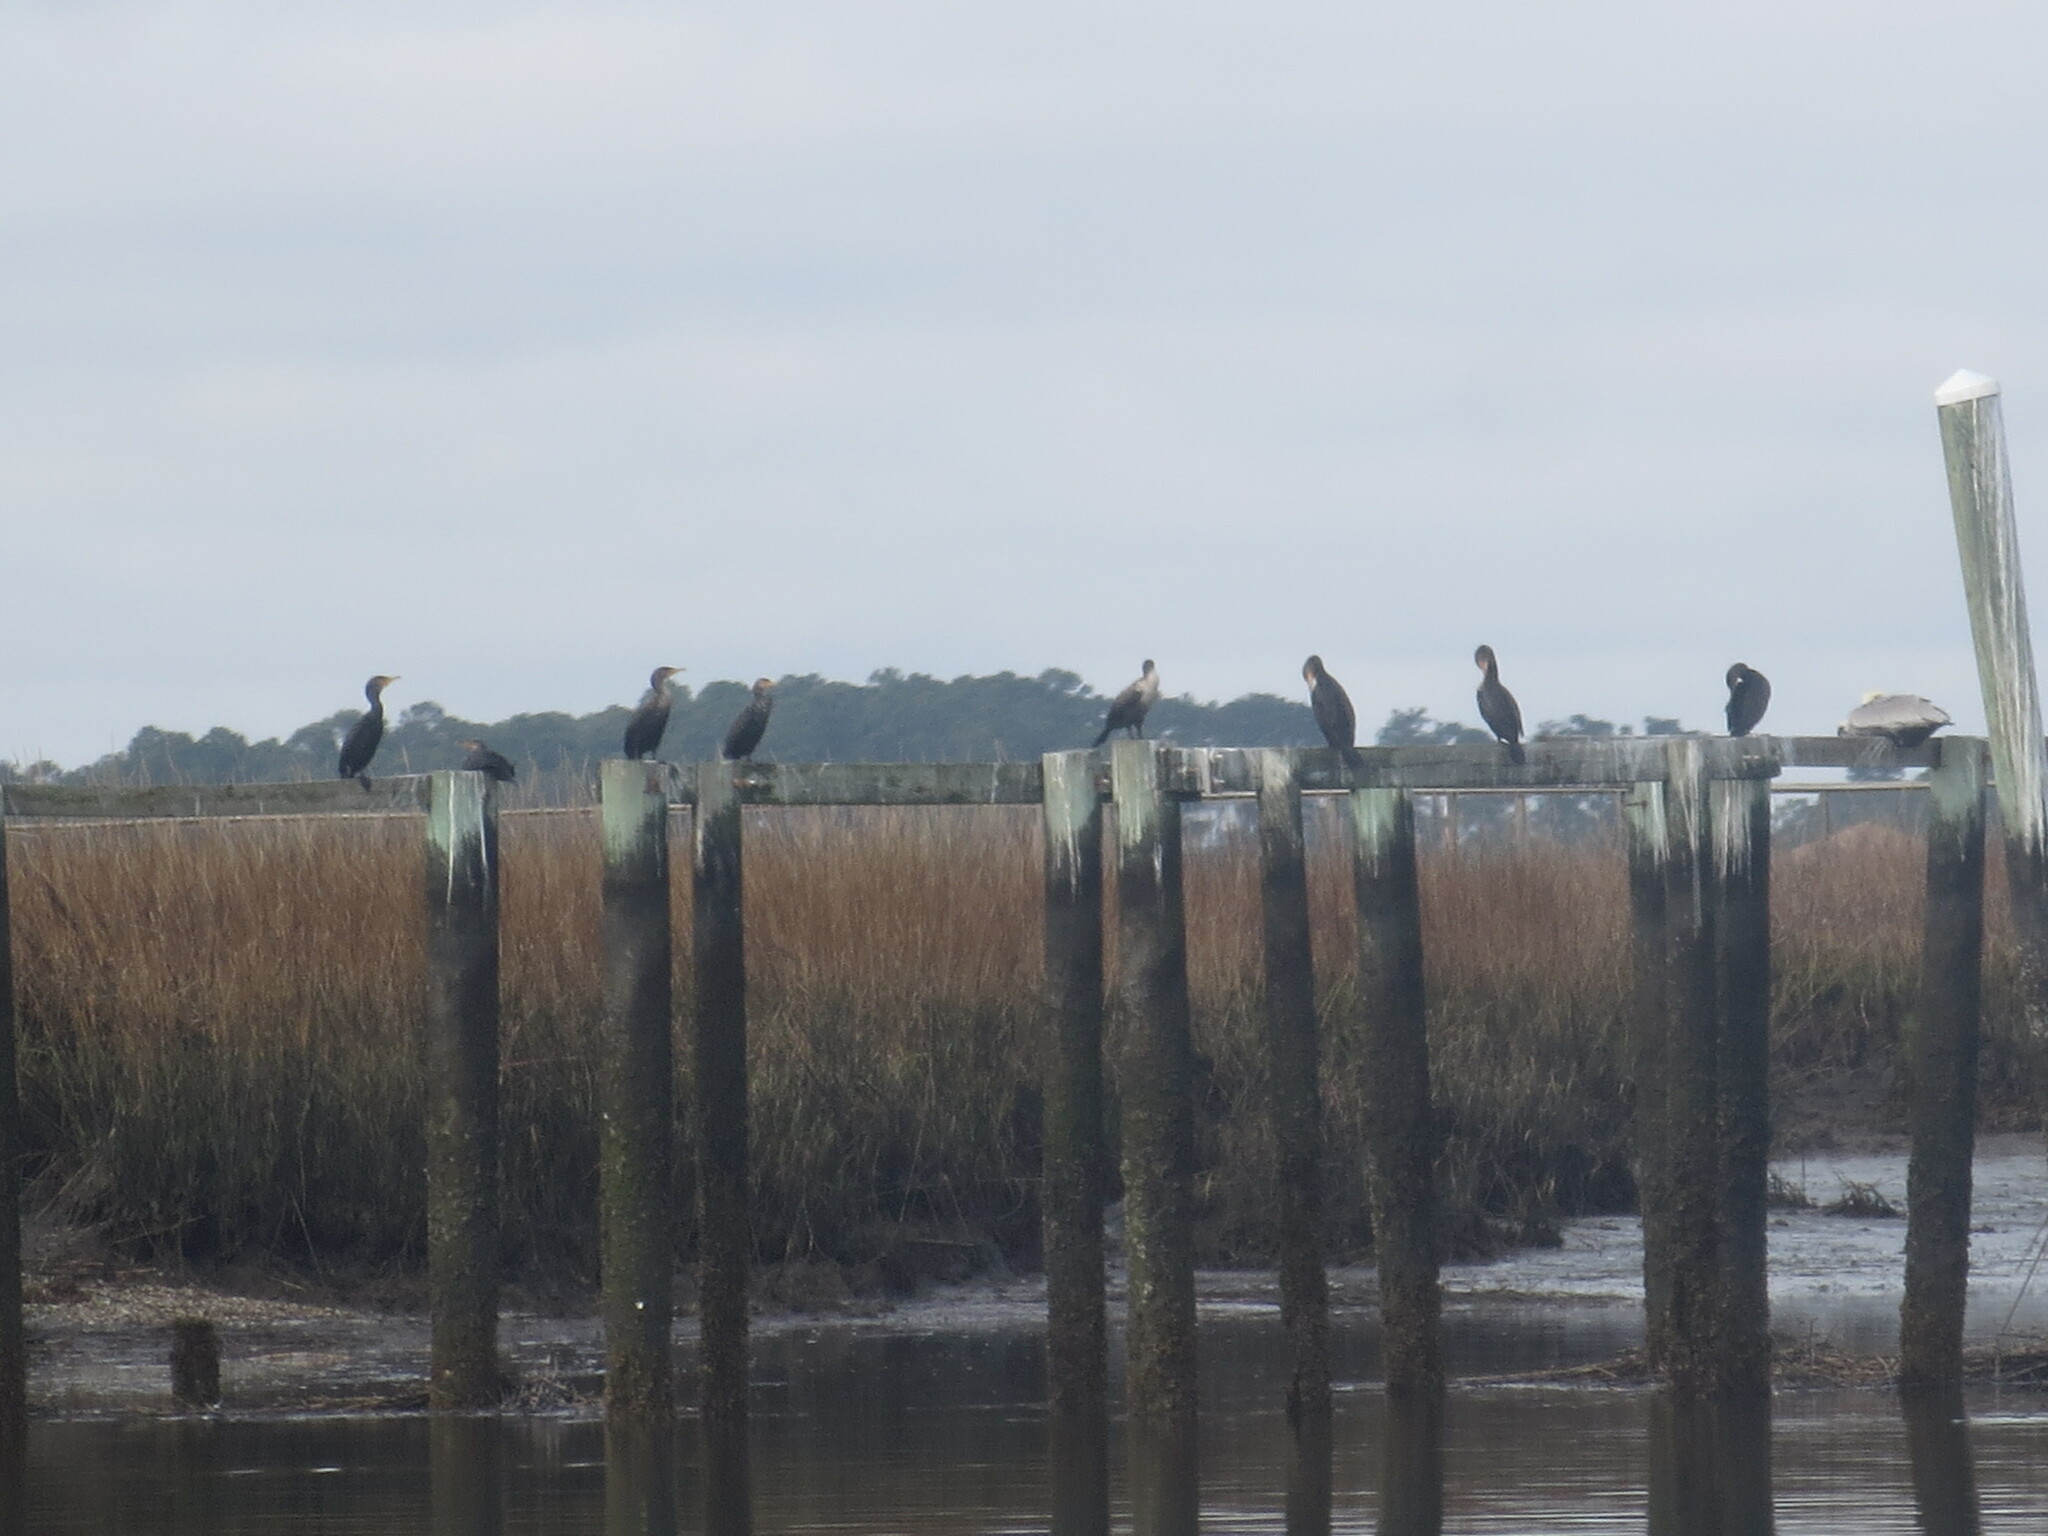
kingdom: Animalia
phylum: Chordata
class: Aves
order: Suliformes
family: Phalacrocoracidae
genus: Phalacrocorax
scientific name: Phalacrocorax auritus
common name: Double-crested cormorant
